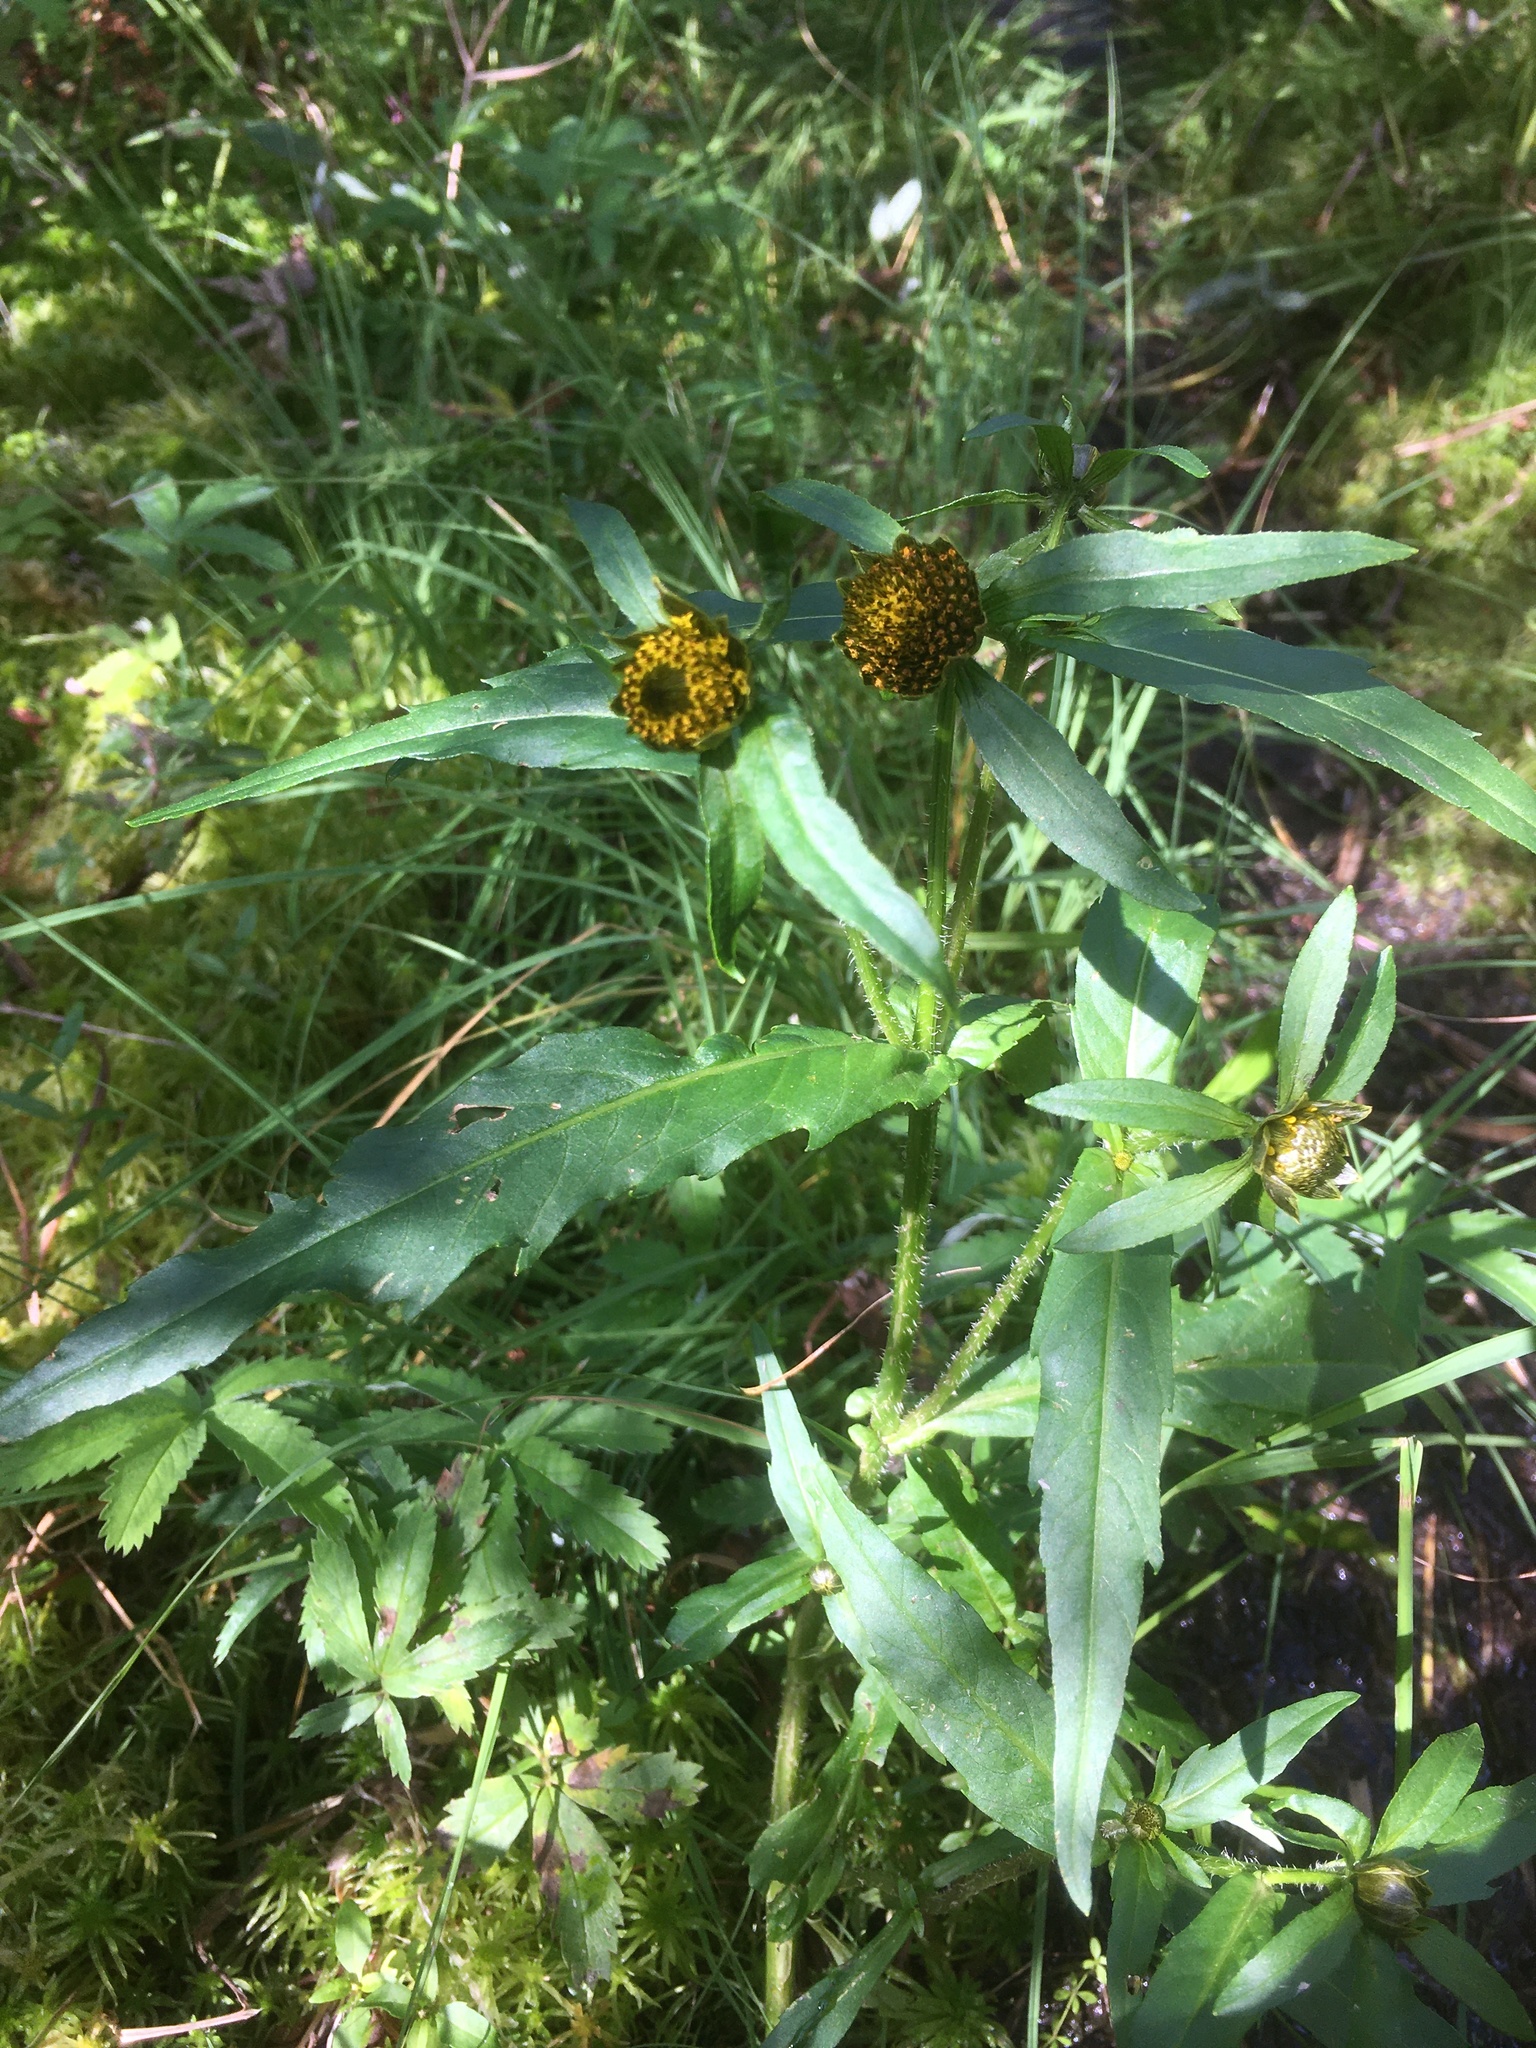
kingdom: Plantae
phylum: Tracheophyta
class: Magnoliopsida
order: Asterales
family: Asteraceae
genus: Bidens
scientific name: Bidens tripartita
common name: Trifid bur-marigold
